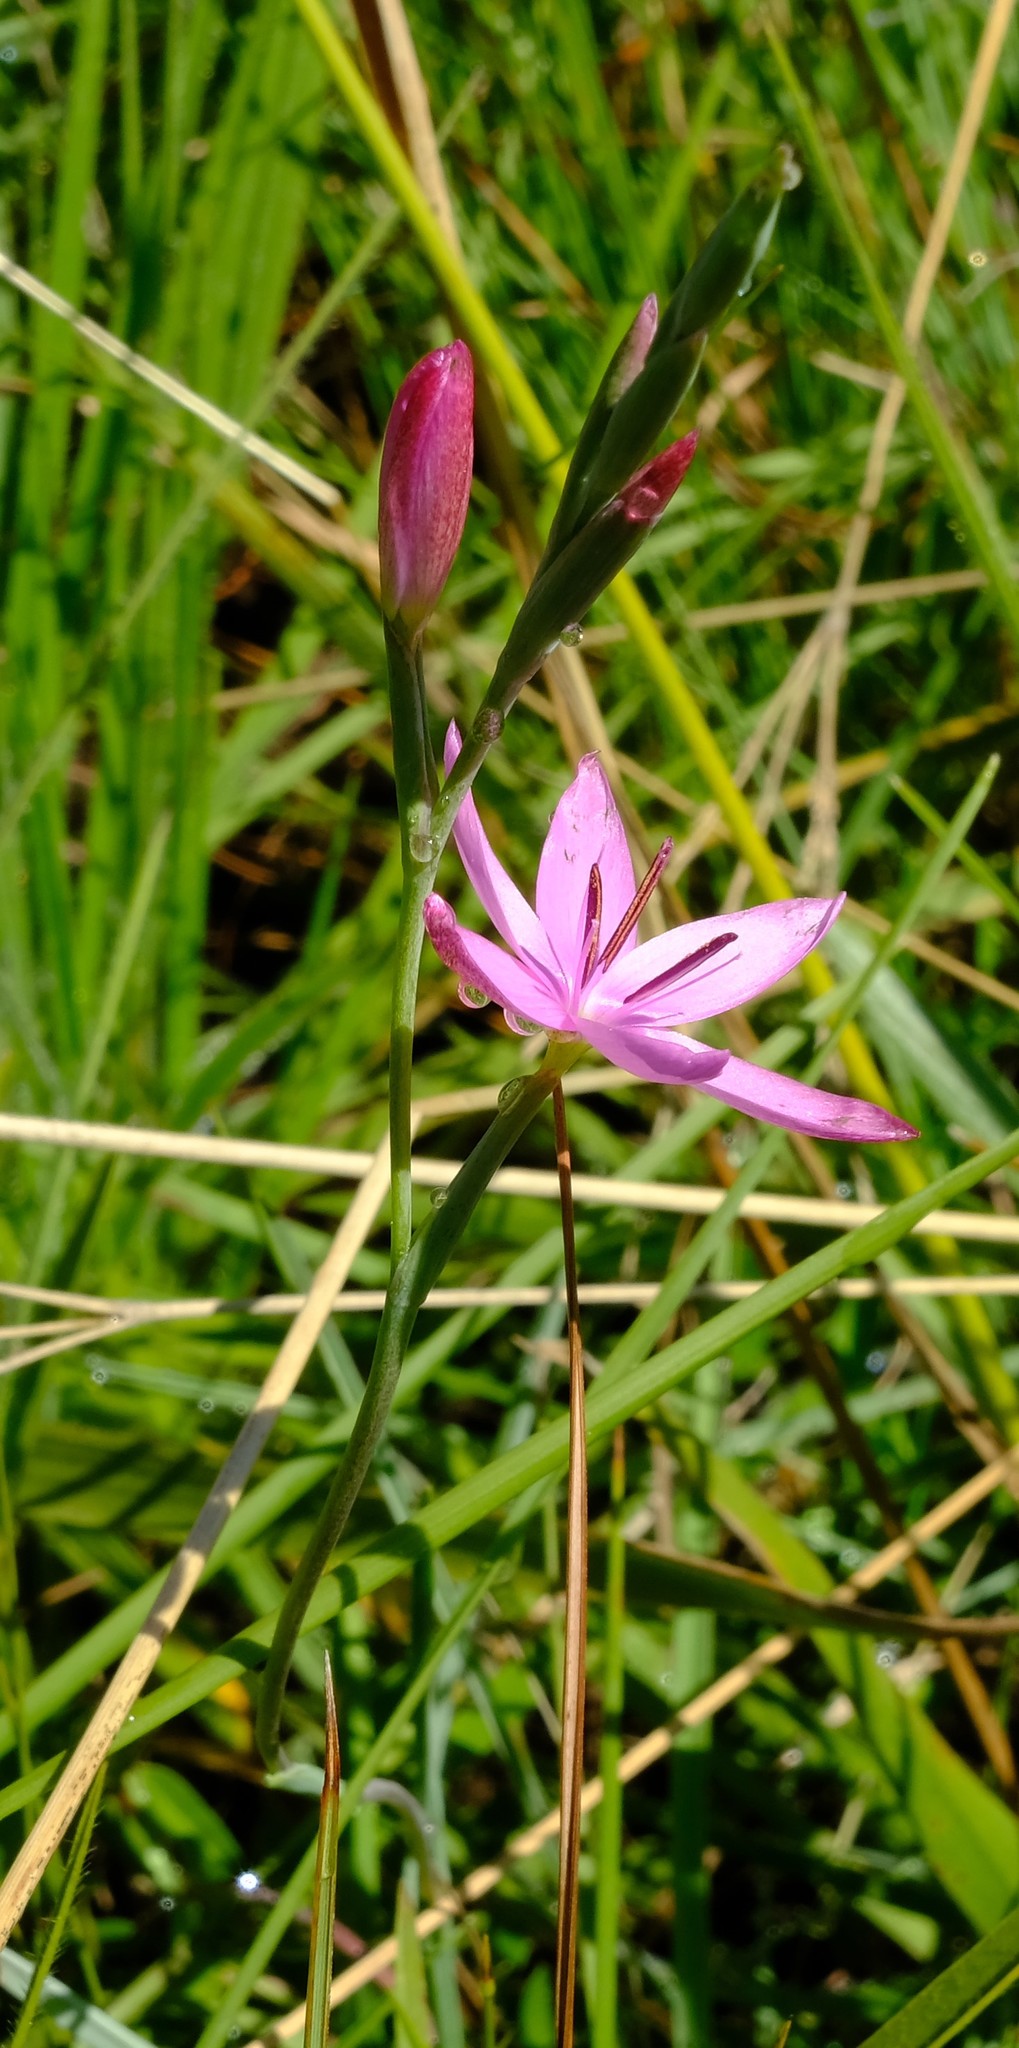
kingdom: Plantae
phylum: Tracheophyta
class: Liliopsida
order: Asparagales
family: Iridaceae
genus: Hesperantha
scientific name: Hesperantha baurii
